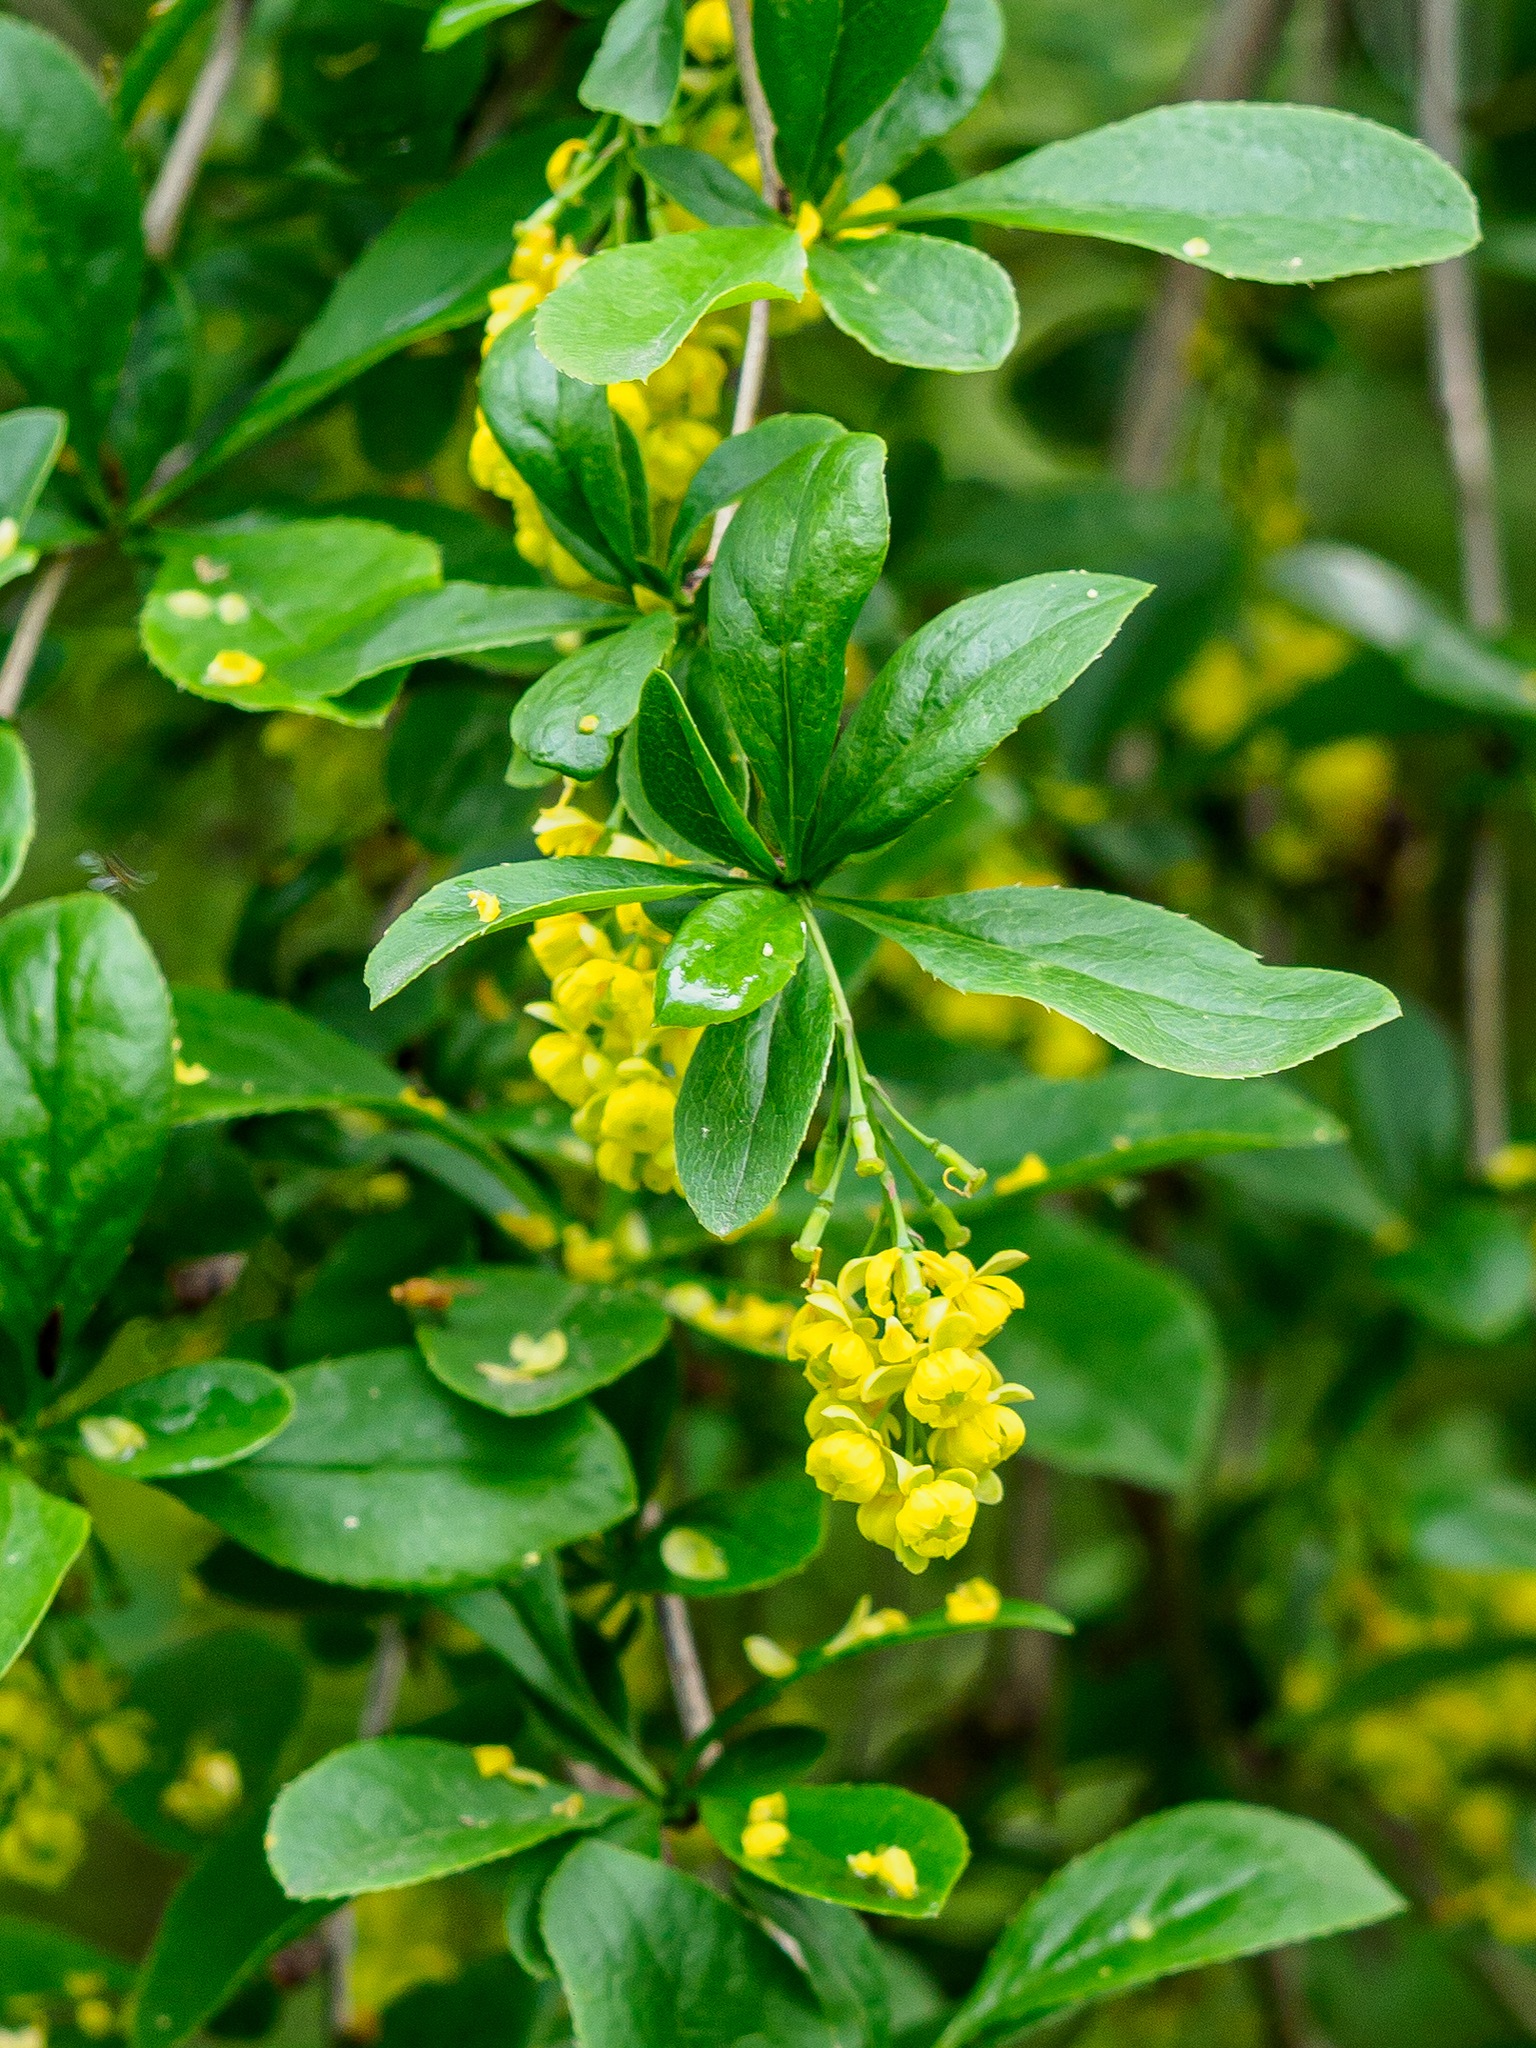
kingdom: Plantae
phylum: Tracheophyta
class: Magnoliopsida
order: Ranunculales
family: Berberidaceae
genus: Berberis
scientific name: Berberis vulgaris
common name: Barberry
